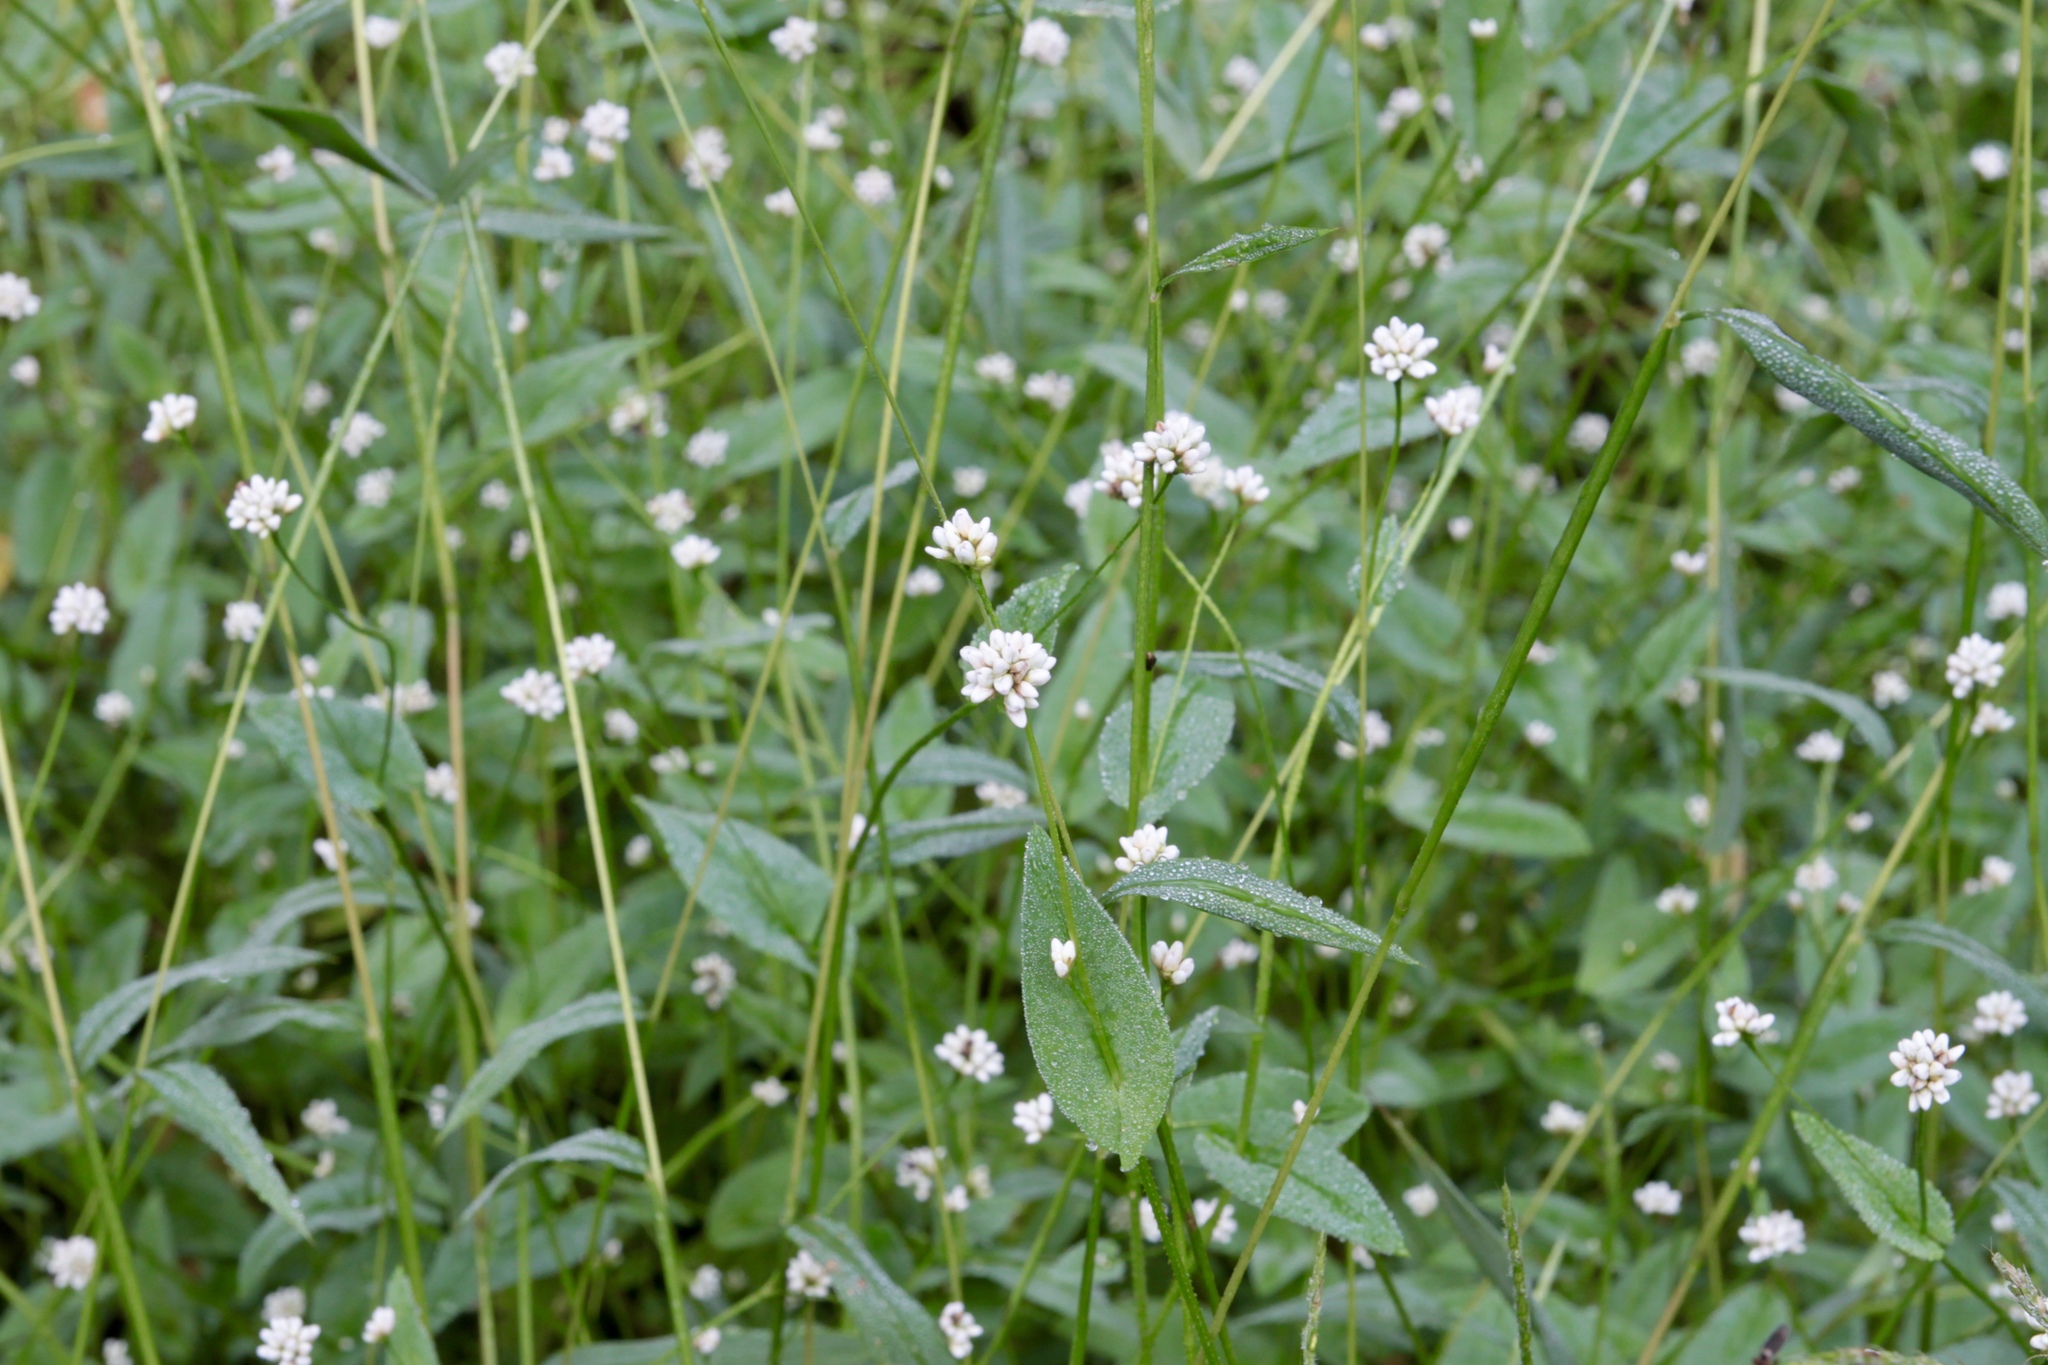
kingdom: Plantae
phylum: Tracheophyta
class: Magnoliopsida
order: Caryophyllales
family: Polygonaceae
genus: Persicaria
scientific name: Persicaria sagittata
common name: American tearthumb
